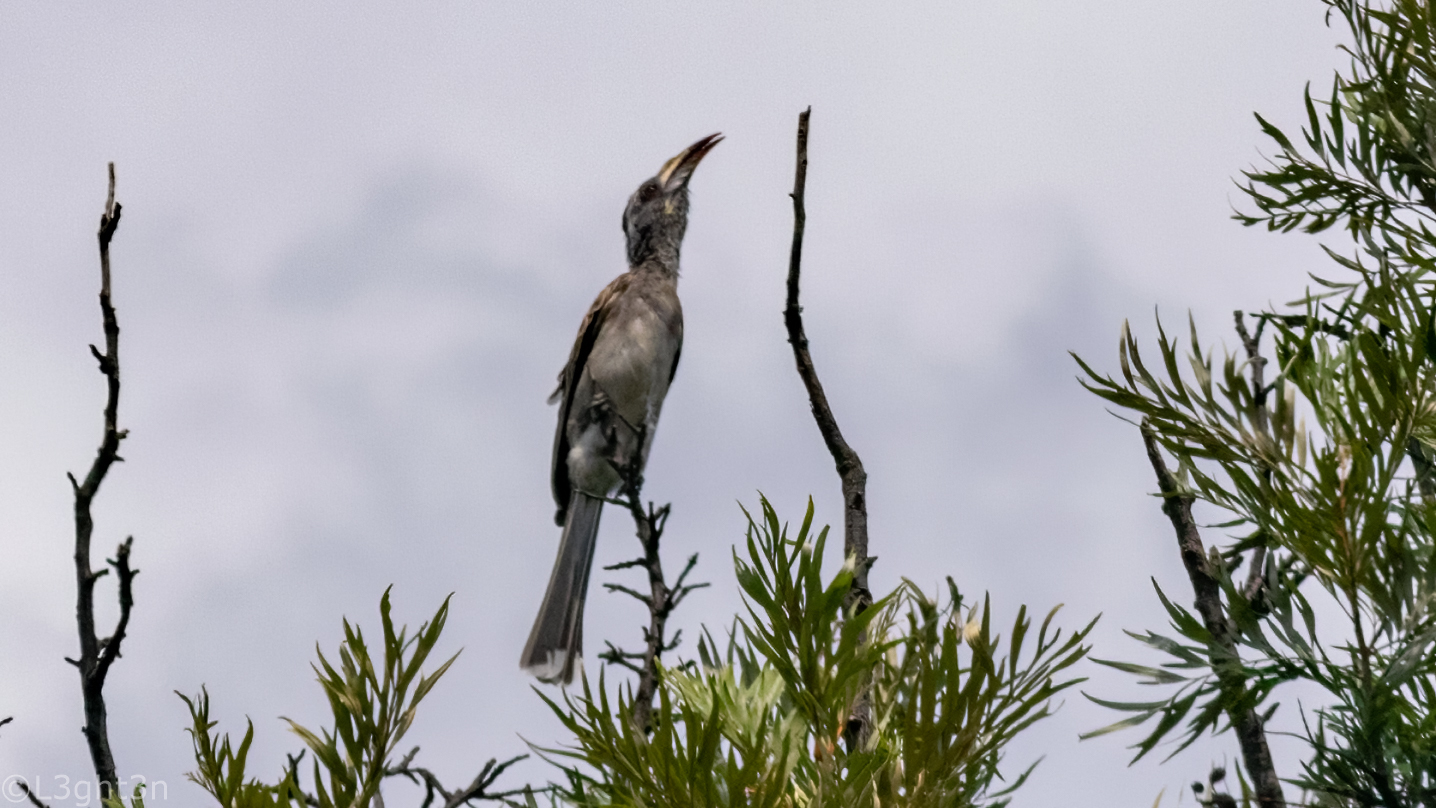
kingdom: Animalia
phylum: Chordata
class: Aves
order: Bucerotiformes
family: Bucerotidae
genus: Lophoceros
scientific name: Lophoceros nasutus
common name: African grey hornbill
